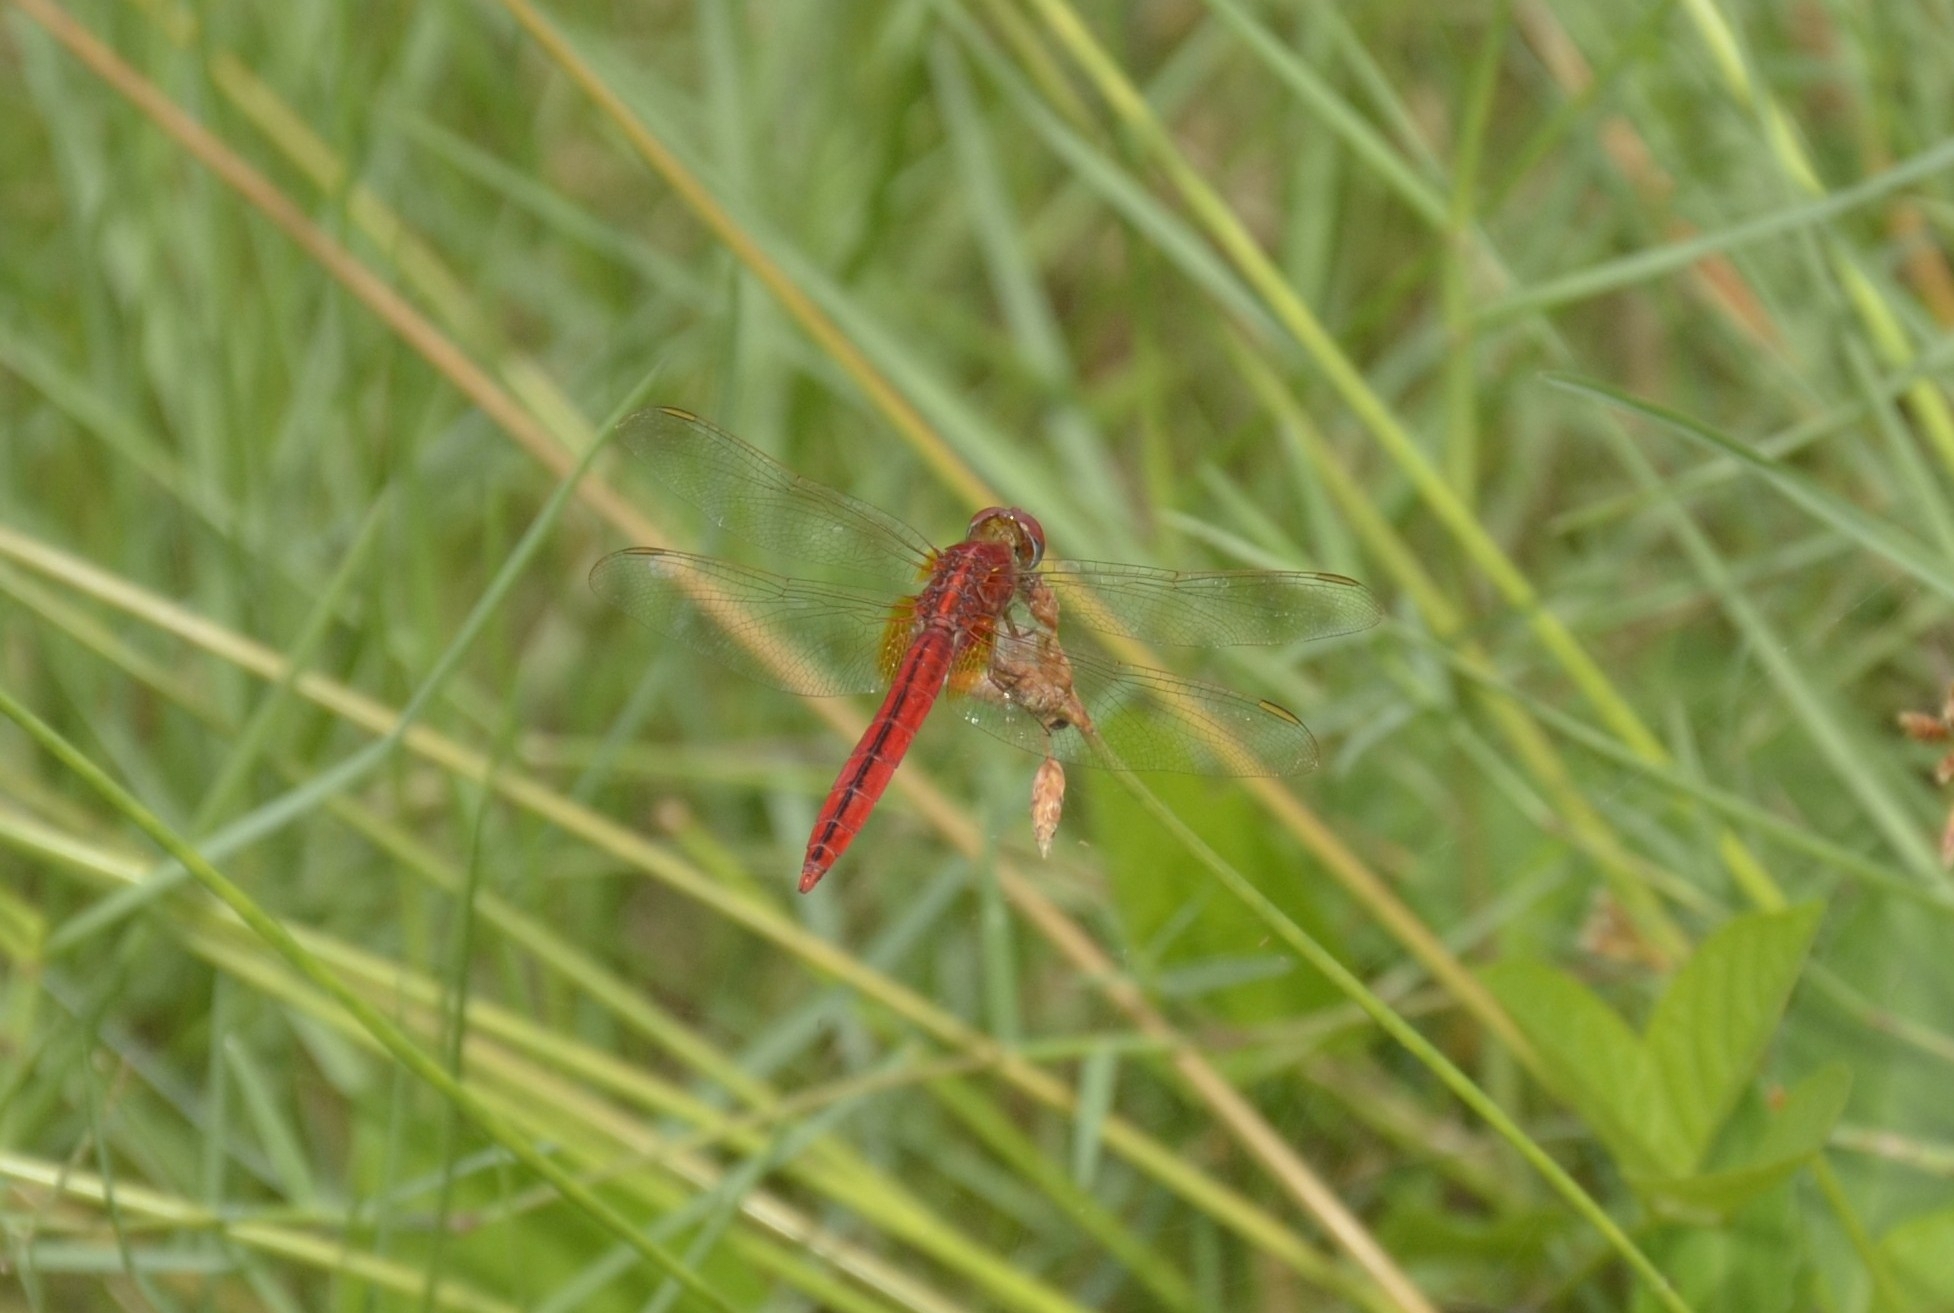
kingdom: Animalia
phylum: Arthropoda
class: Insecta
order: Odonata
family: Libellulidae
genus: Crocothemis
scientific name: Crocothemis servilia
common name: Scarlet skimmer
